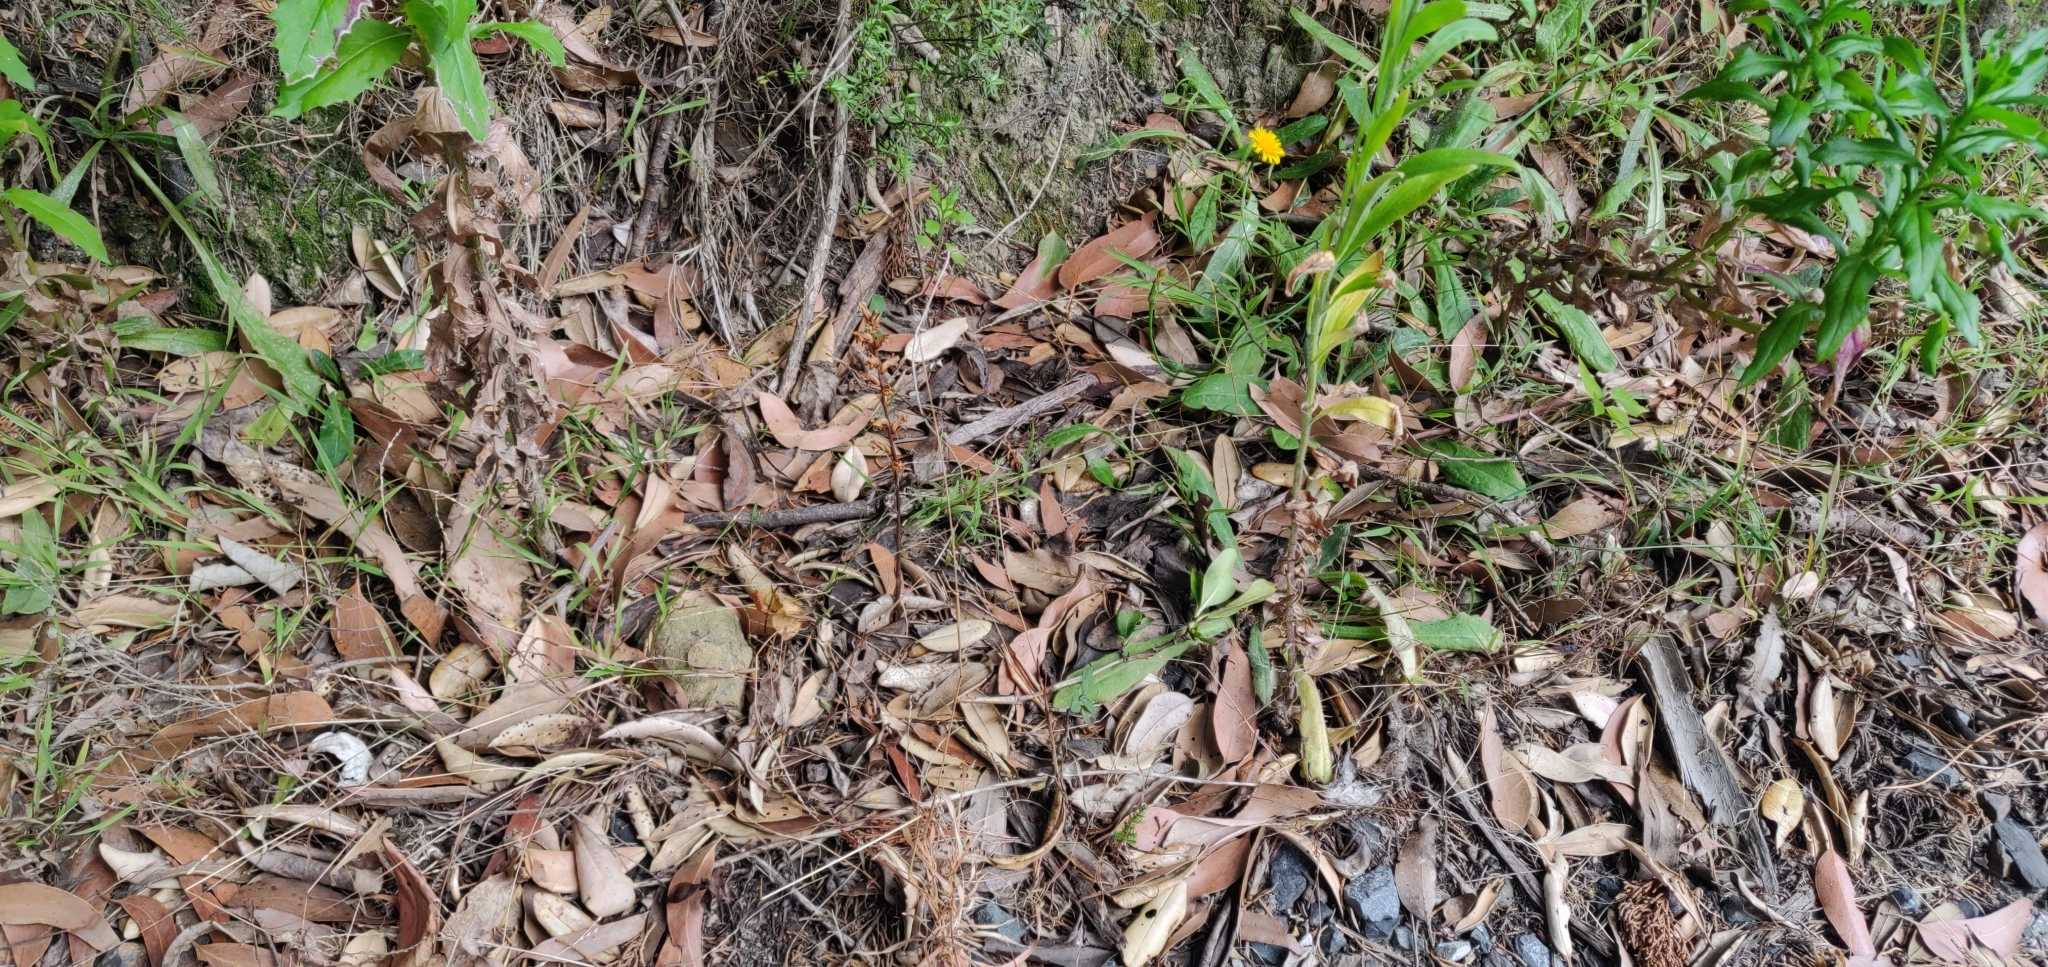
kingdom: Plantae
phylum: Tracheophyta
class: Magnoliopsida
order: Lamiales
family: Orobanchaceae
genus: Orobanche
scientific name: Orobanche minor
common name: Common broomrape
